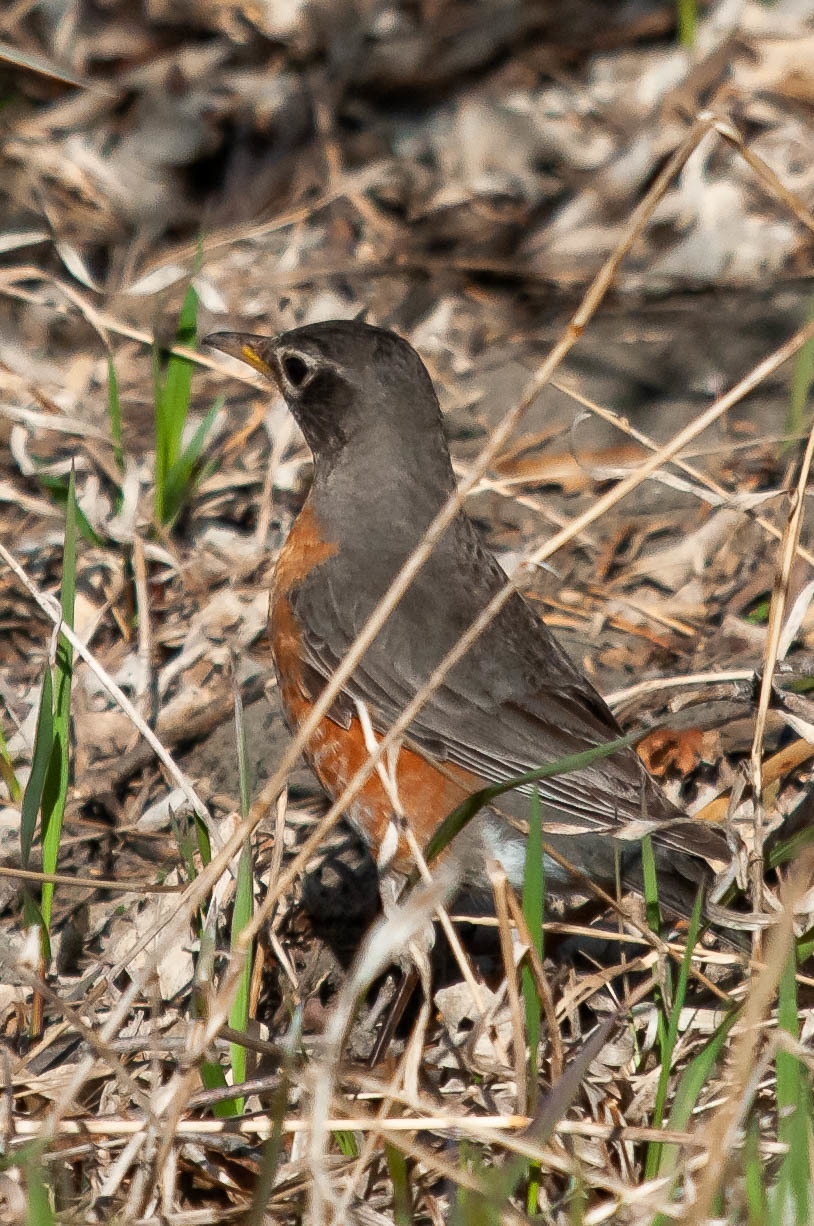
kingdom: Animalia
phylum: Chordata
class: Aves
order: Passeriformes
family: Turdidae
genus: Turdus
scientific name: Turdus migratorius
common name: American robin
